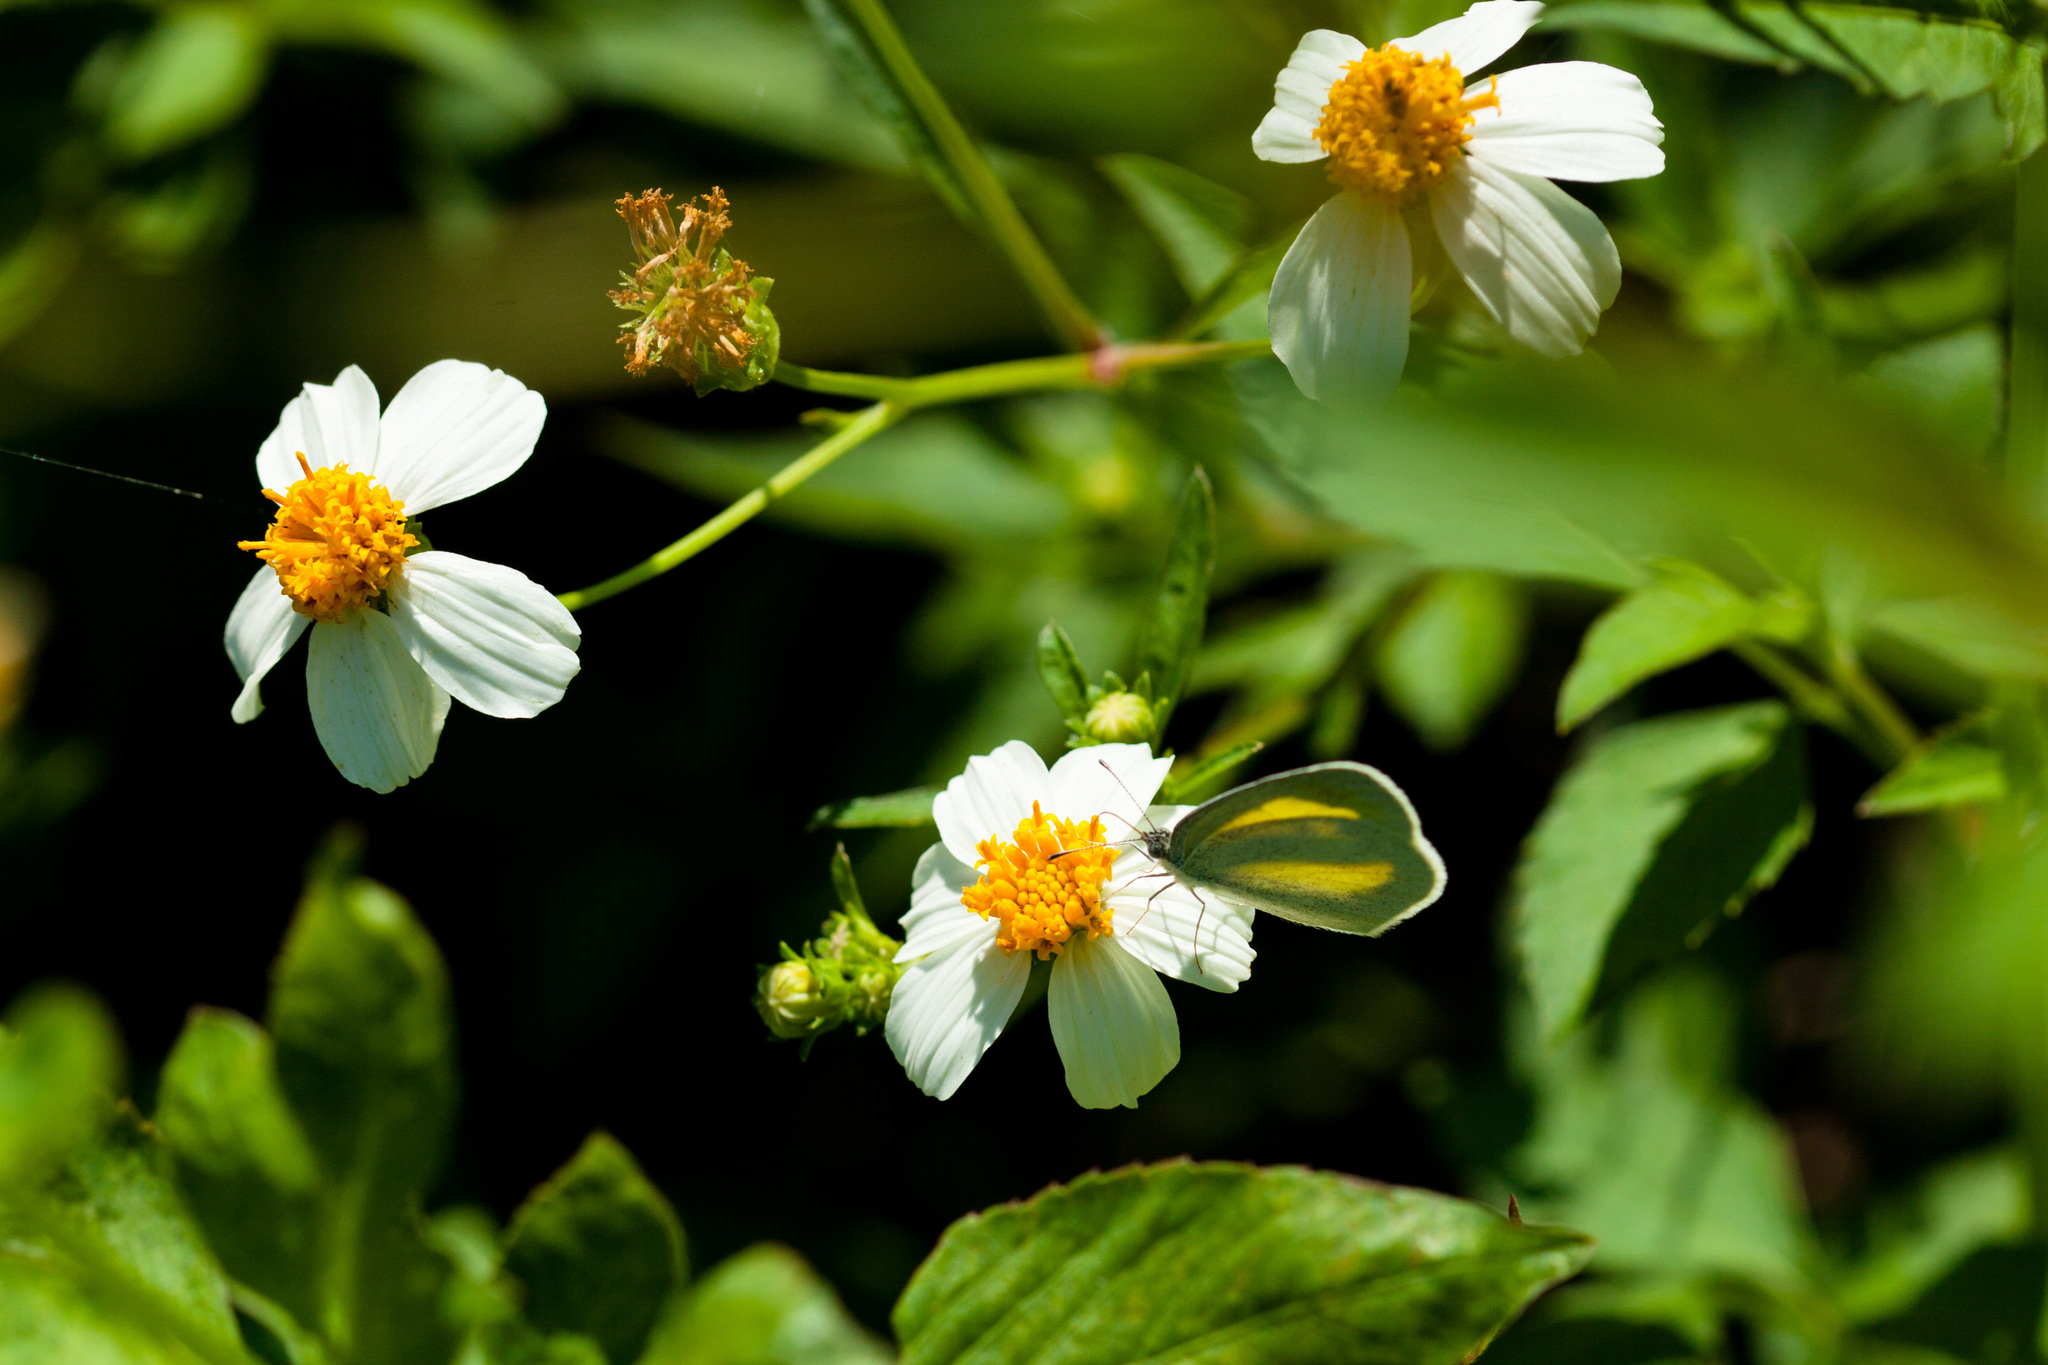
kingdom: Plantae
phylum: Tracheophyta
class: Magnoliopsida
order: Asterales
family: Asteraceae
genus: Bidens
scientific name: Bidens alba
